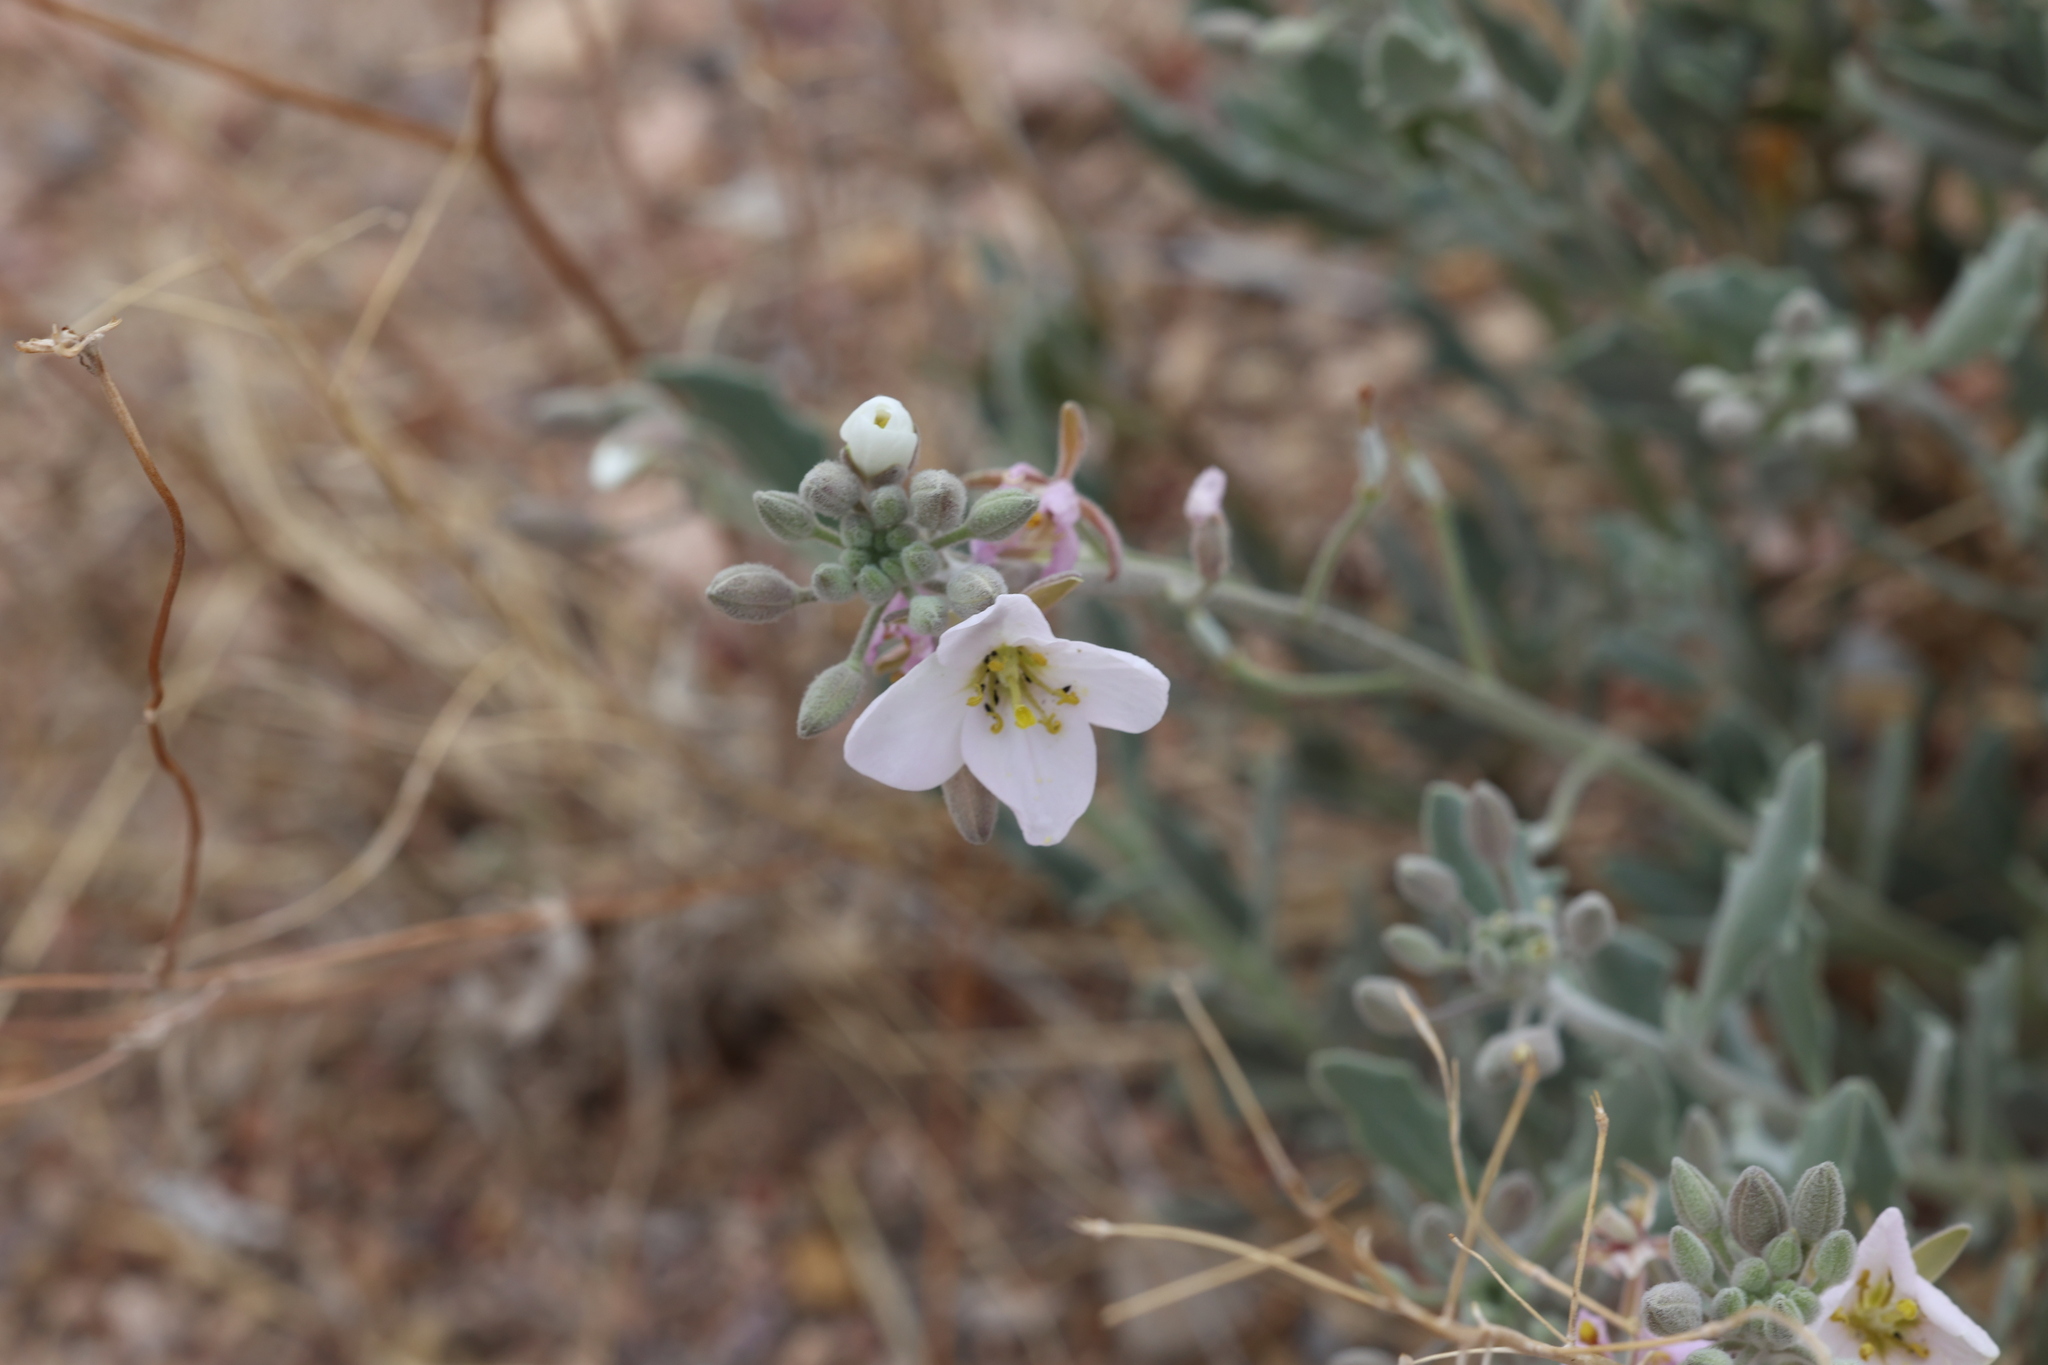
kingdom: Plantae
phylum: Tracheophyta
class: Magnoliopsida
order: Brassicales
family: Brassicaceae
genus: Nerisyrenia
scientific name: Nerisyrenia camporum
